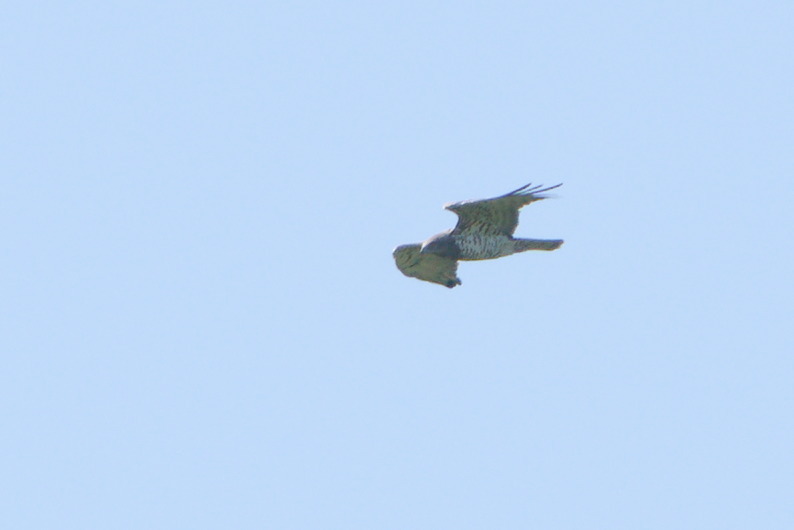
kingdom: Animalia
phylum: Chordata
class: Aves
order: Accipitriformes
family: Accipitridae
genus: Circaetus
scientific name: Circaetus gallicus
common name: Short-toed snake eagle
